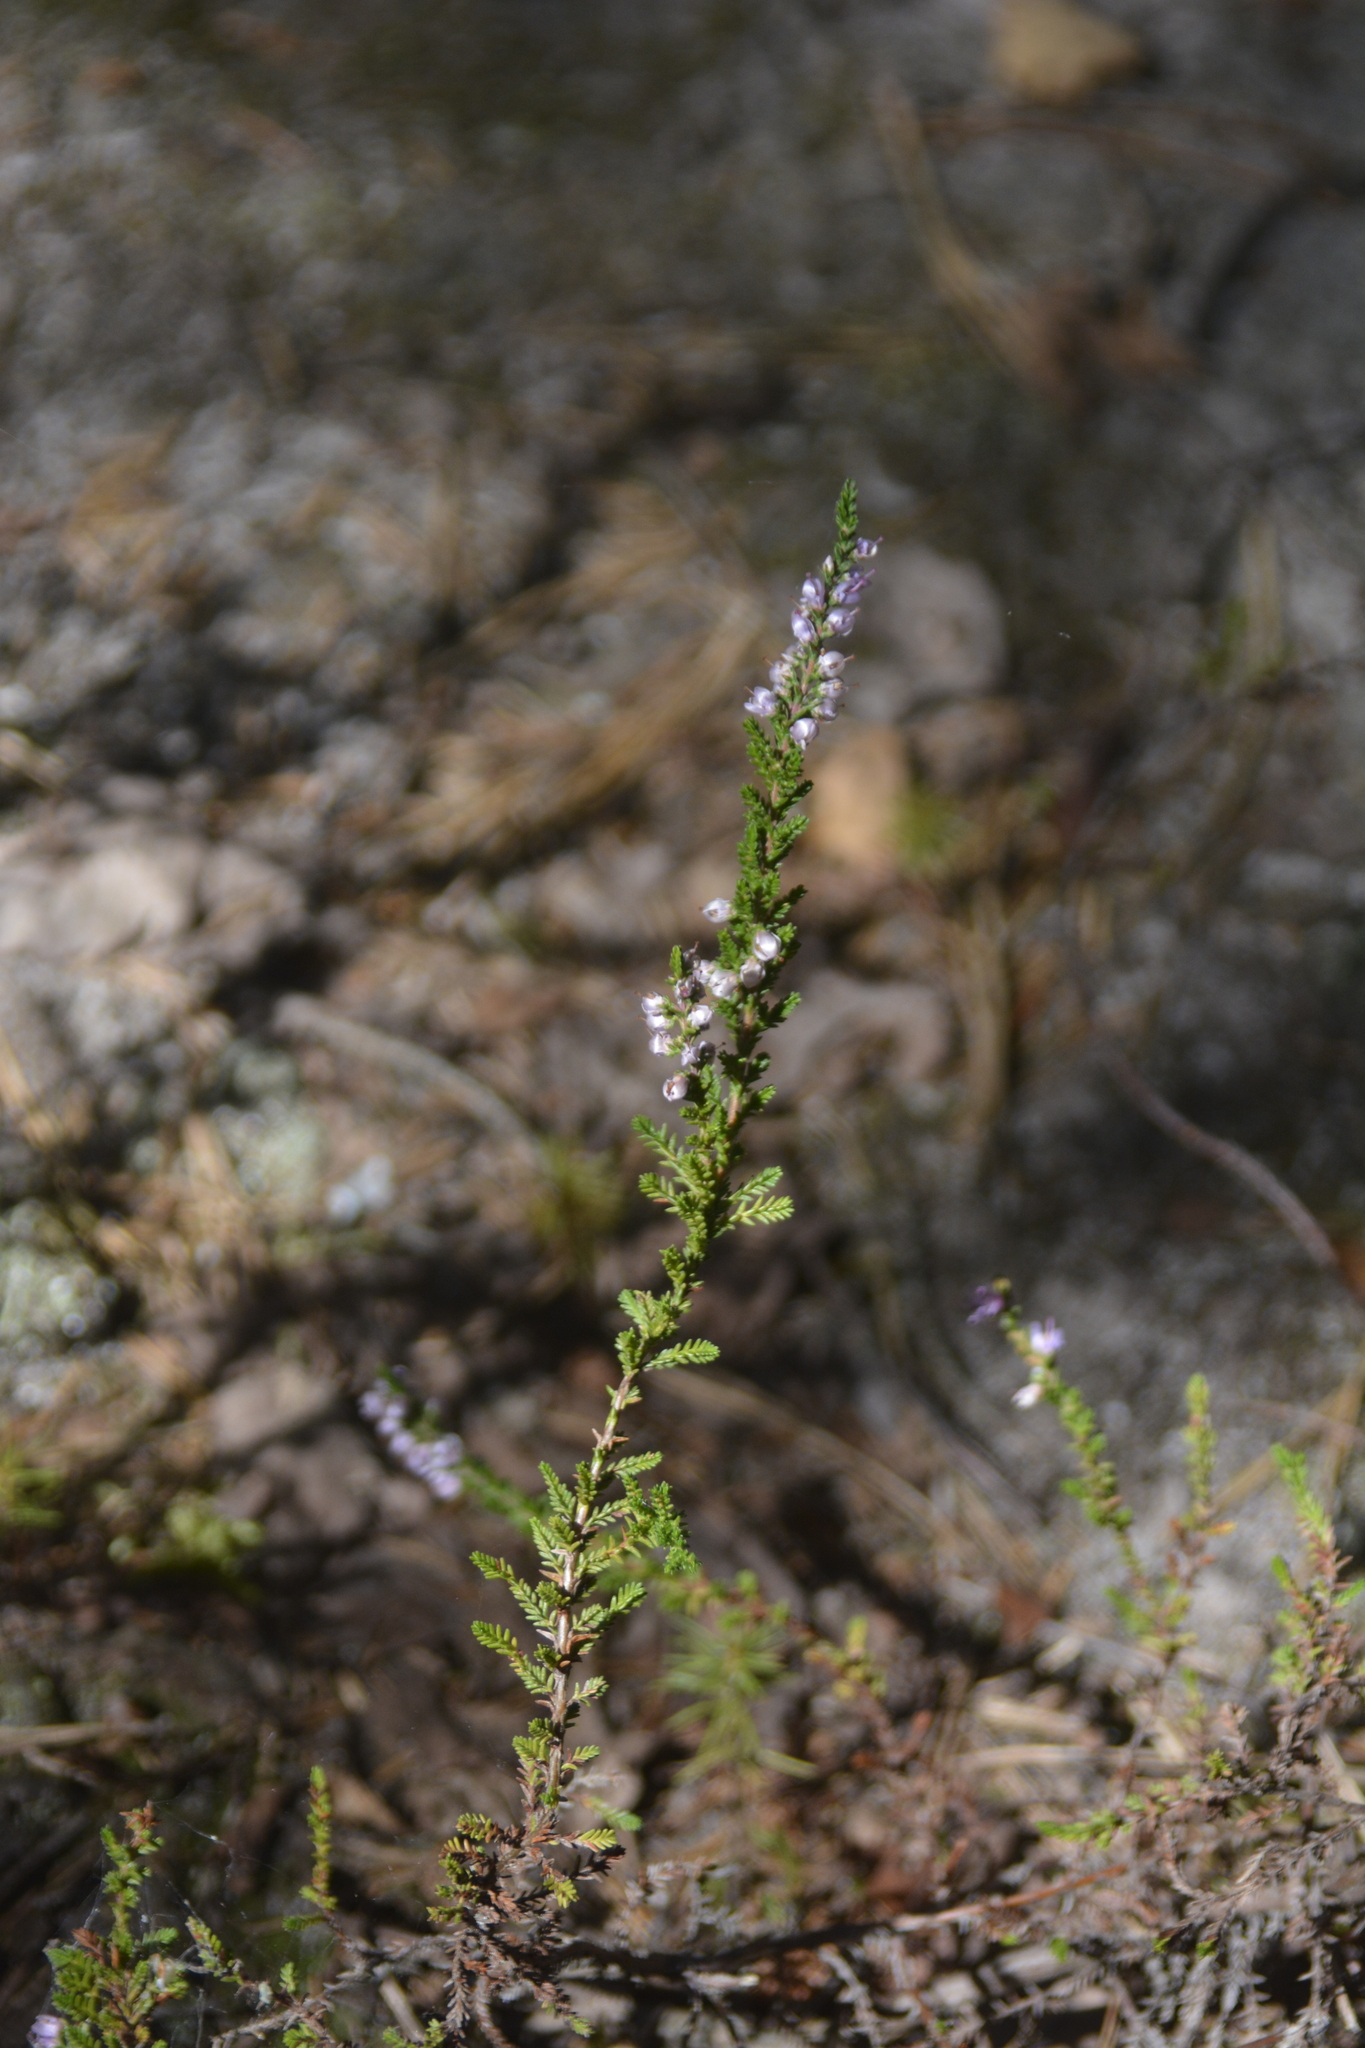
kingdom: Plantae
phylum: Tracheophyta
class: Magnoliopsida
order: Ericales
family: Ericaceae
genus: Calluna
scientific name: Calluna vulgaris
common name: Heather
